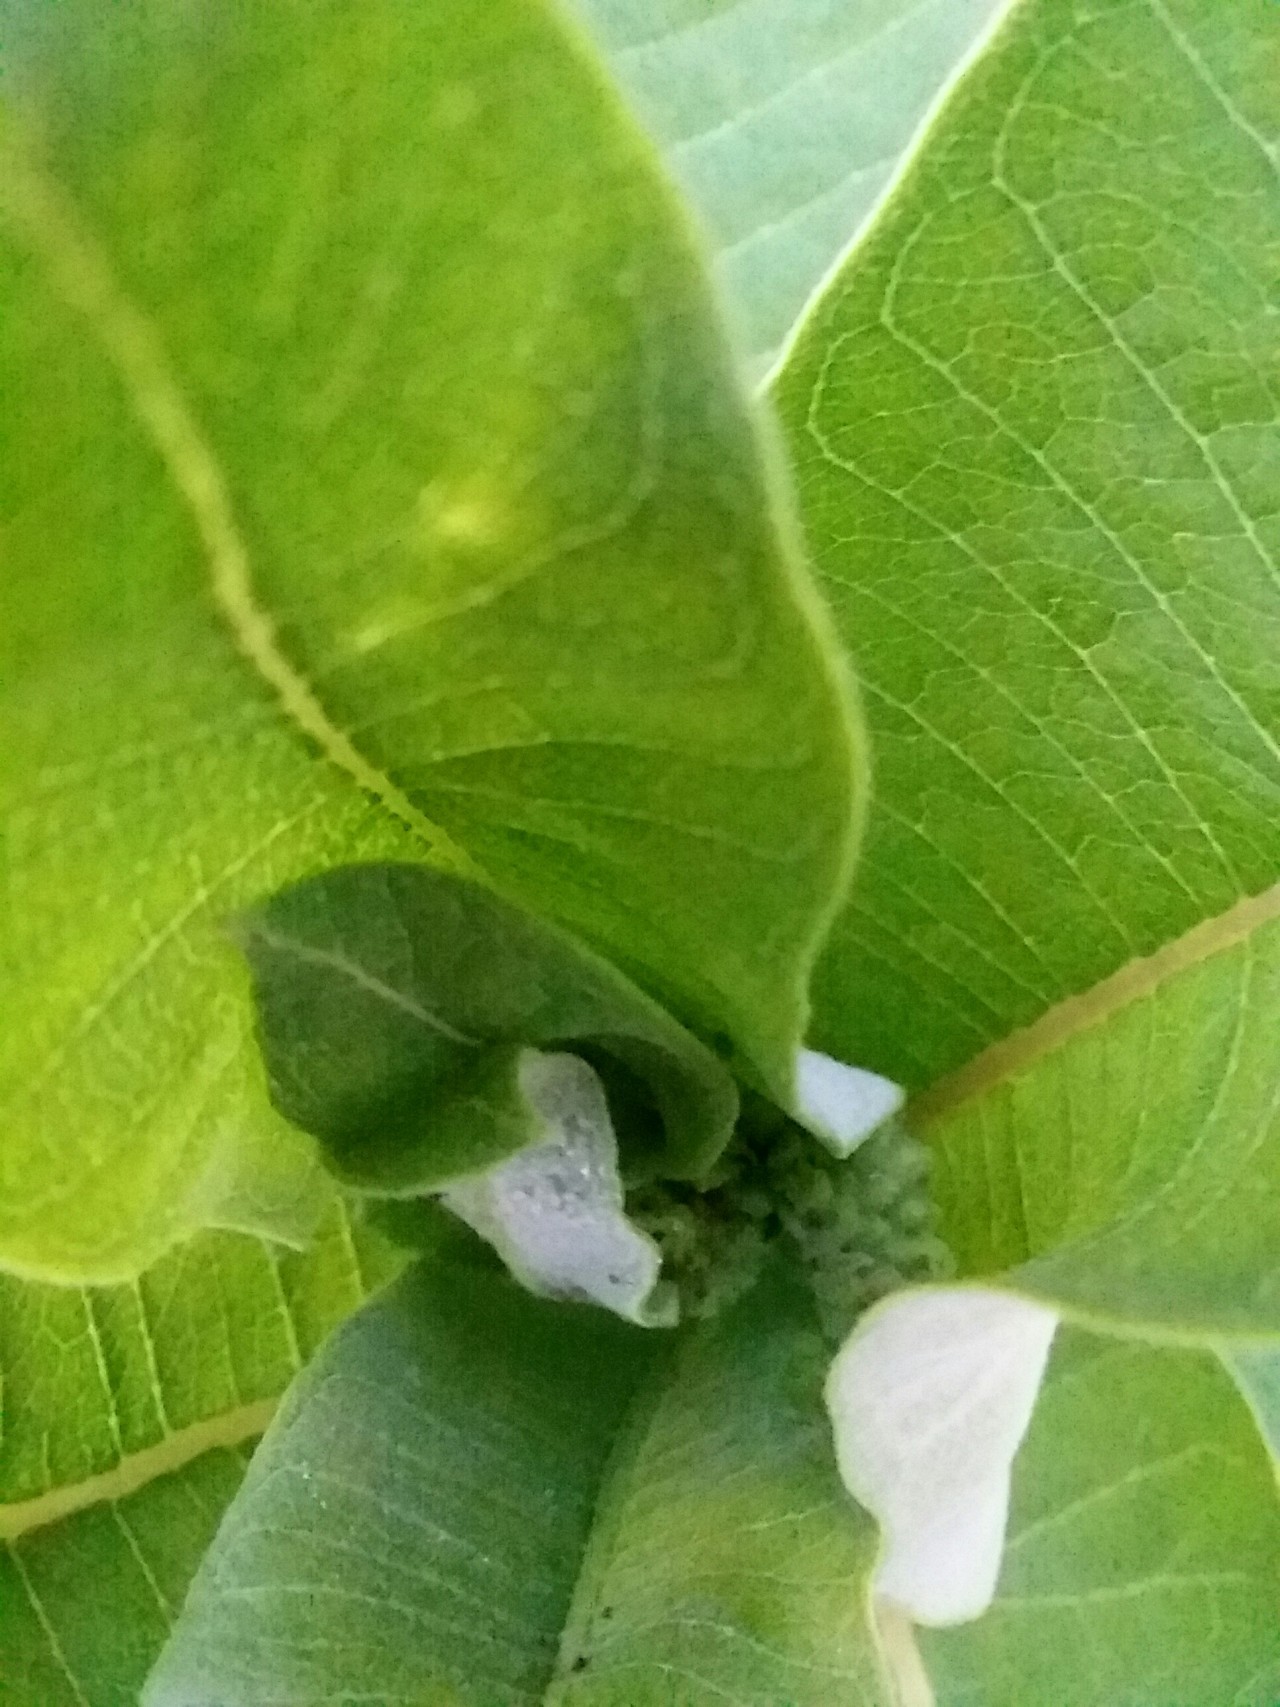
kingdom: Plantae
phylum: Tracheophyta
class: Magnoliopsida
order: Gentianales
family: Apocynaceae
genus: Asclepias
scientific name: Asclepias syriaca
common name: Common milkweed
